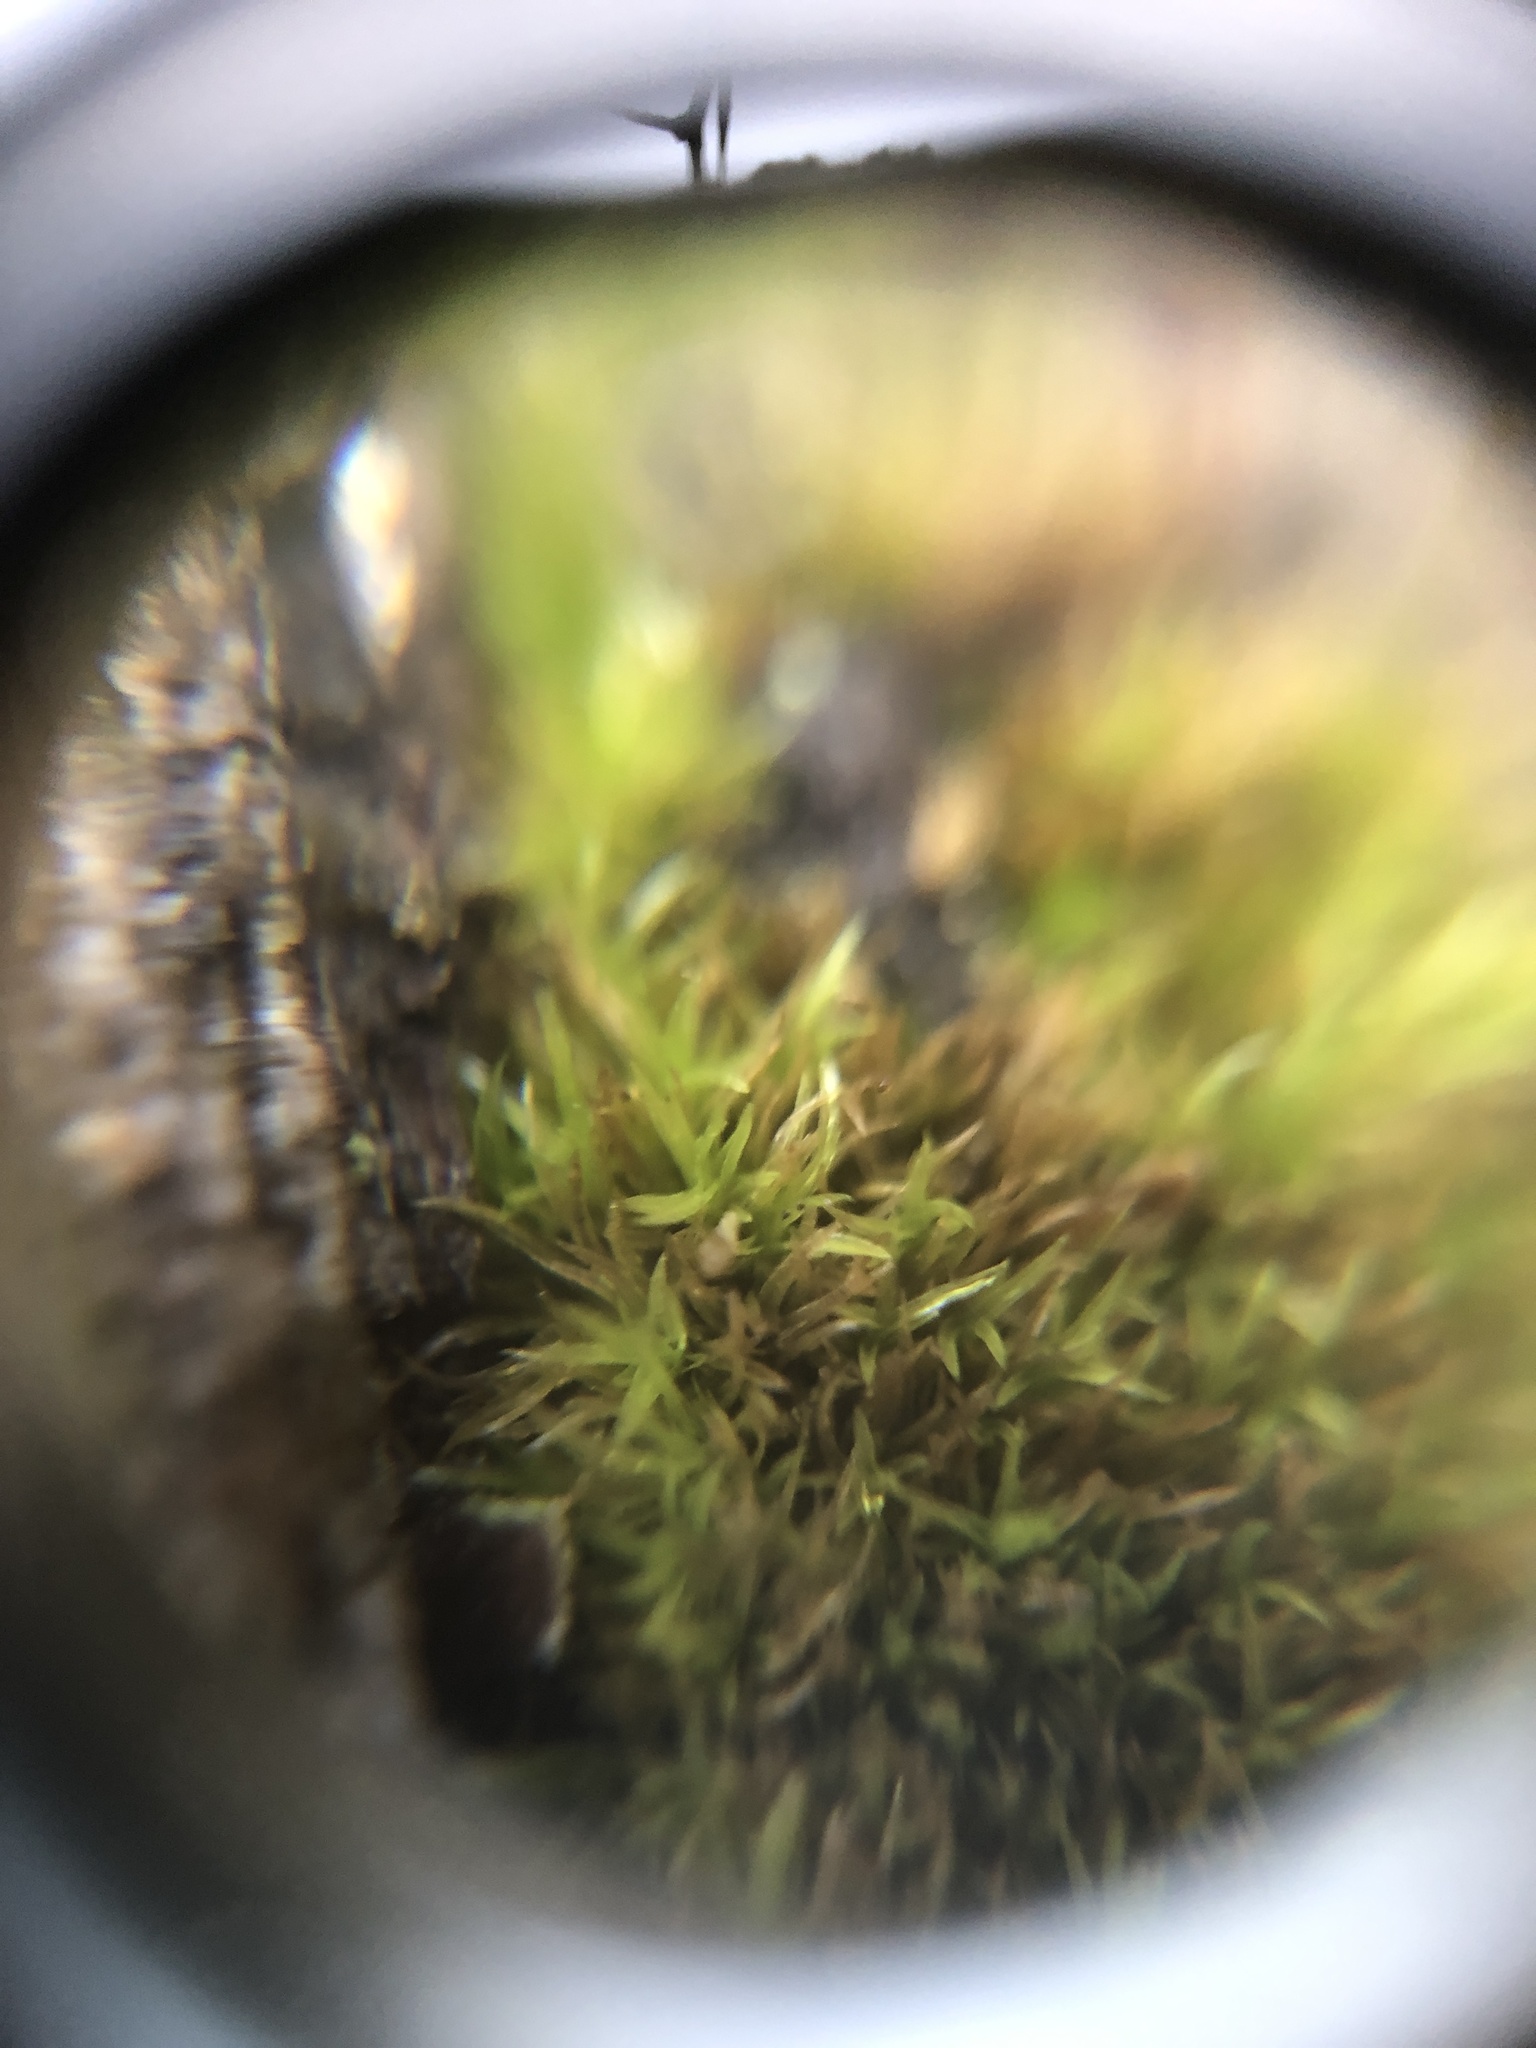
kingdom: Plantae
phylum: Bryophyta
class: Bryopsida
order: Dicranales
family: Rhabdoweisiaceae
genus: Dicranoweisia
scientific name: Dicranoweisia cirrata
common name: Common pincushion
